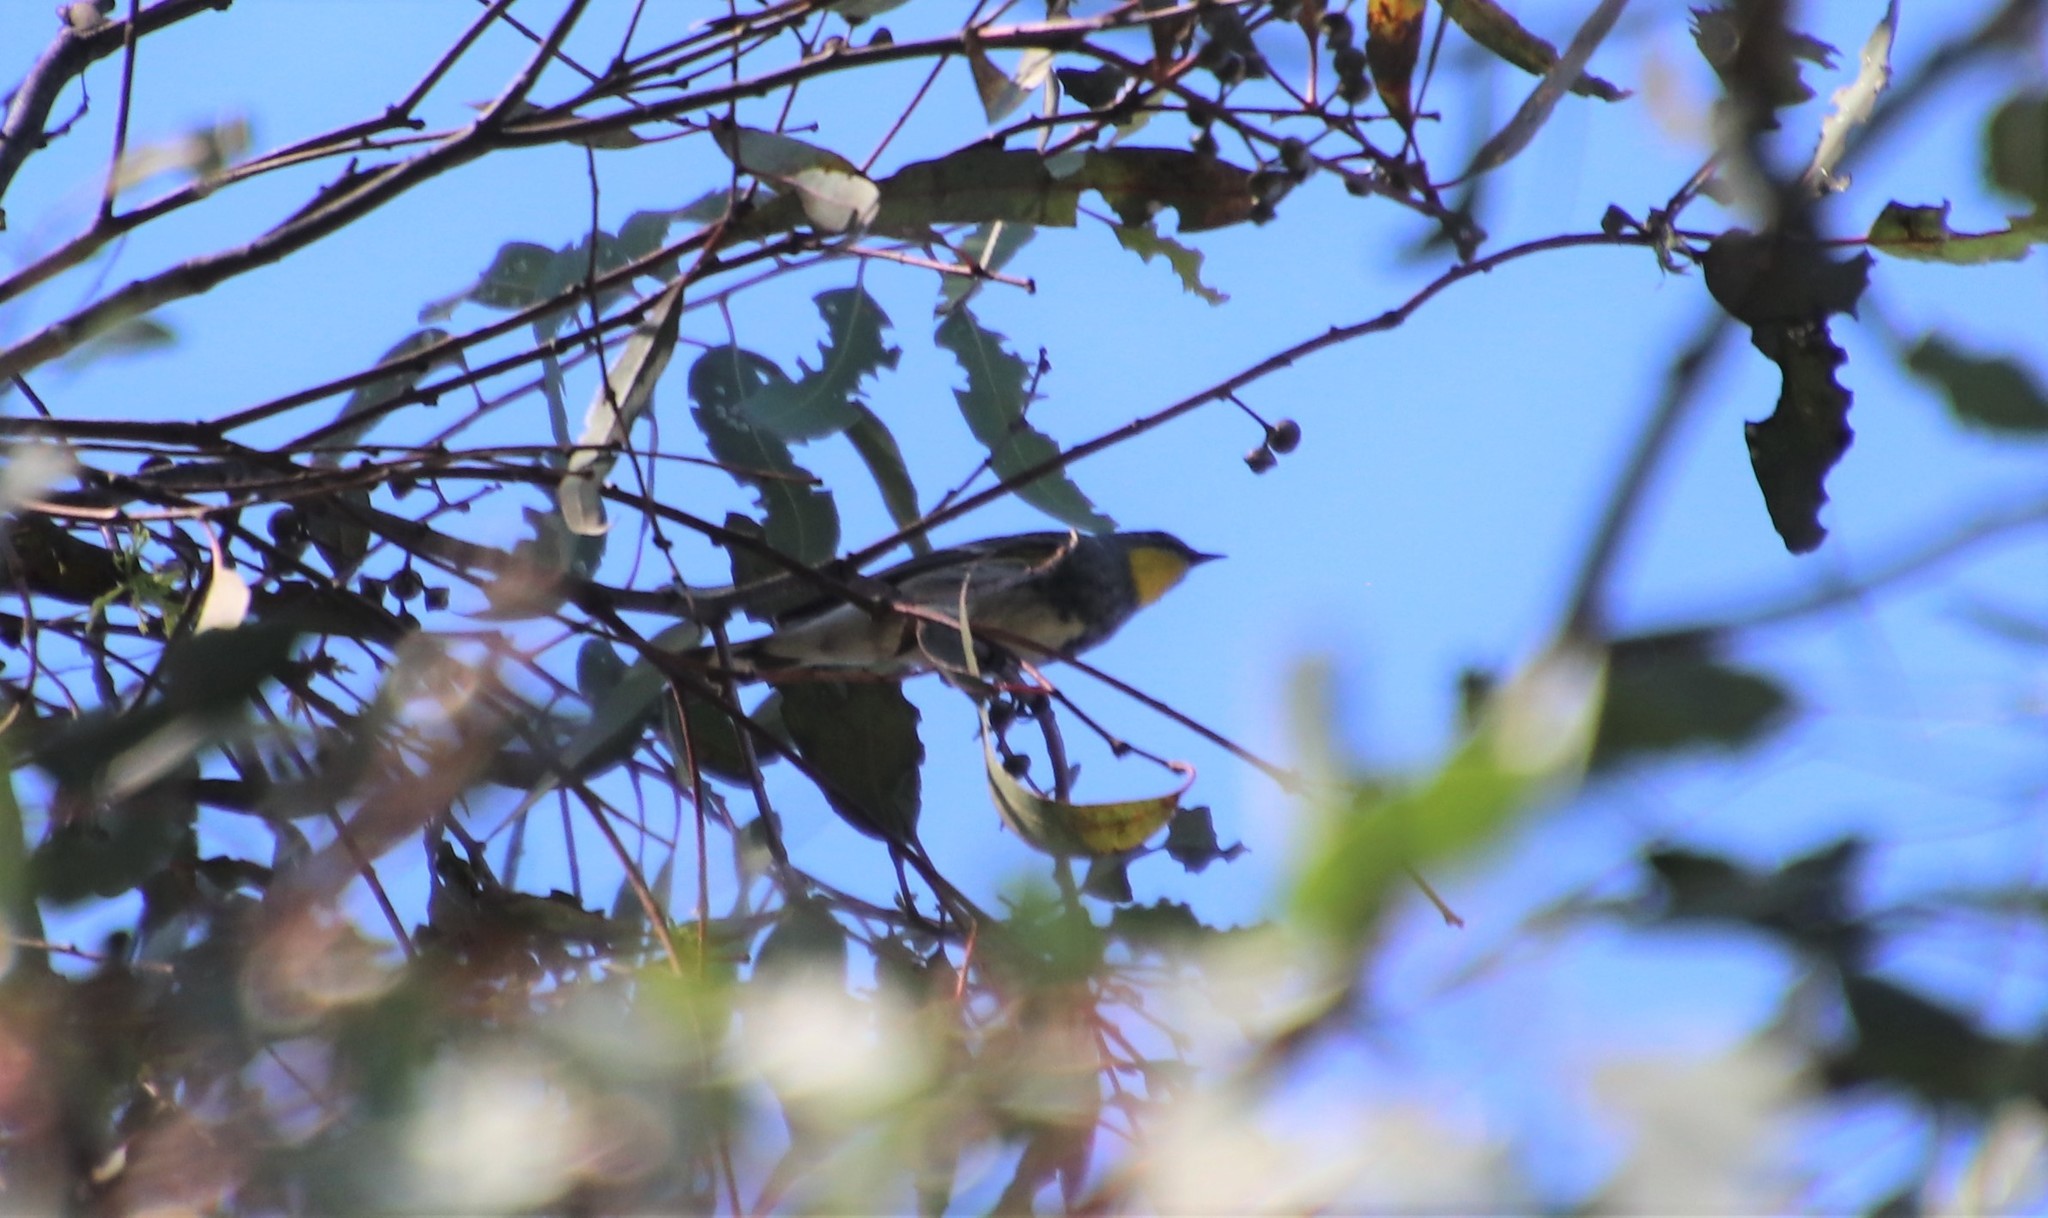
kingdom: Animalia
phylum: Chordata
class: Aves
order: Passeriformes
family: Parulidae
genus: Setophaga
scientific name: Setophaga auduboni
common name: Audubon's warbler
